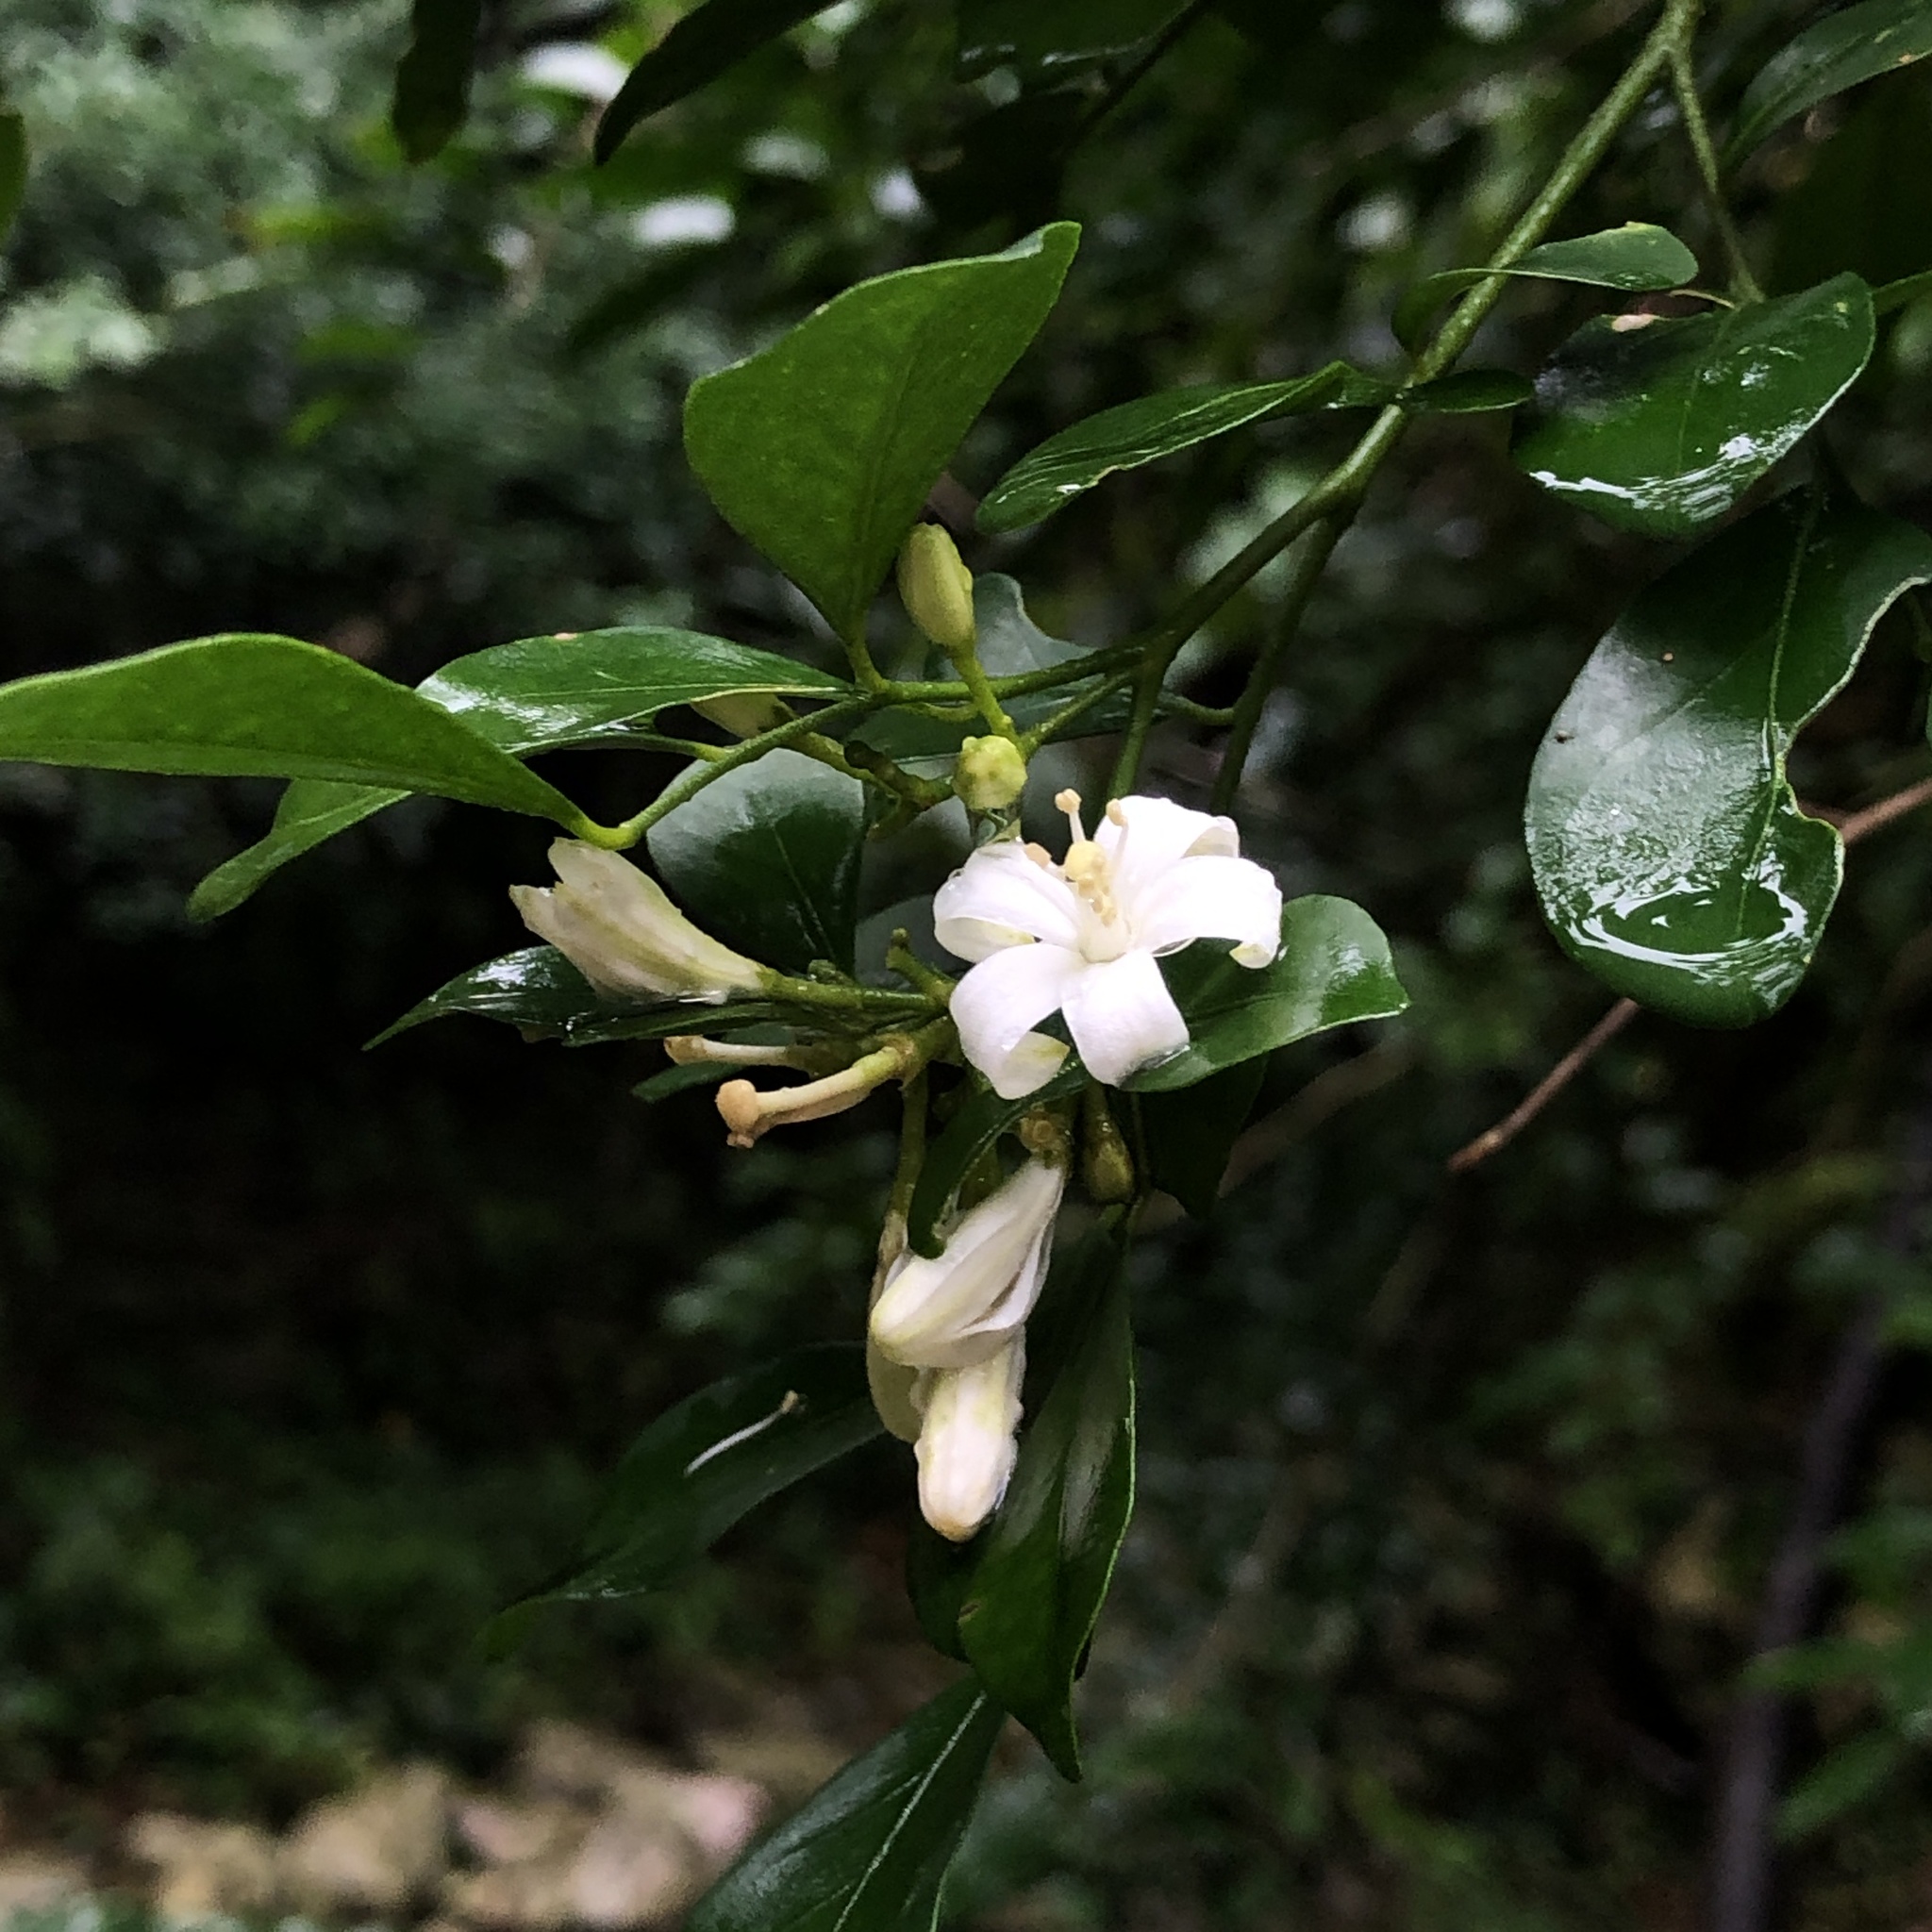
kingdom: Plantae
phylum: Tracheophyta
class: Magnoliopsida
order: Sapindales
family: Rutaceae
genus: Murraya
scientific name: Murraya paniculata
